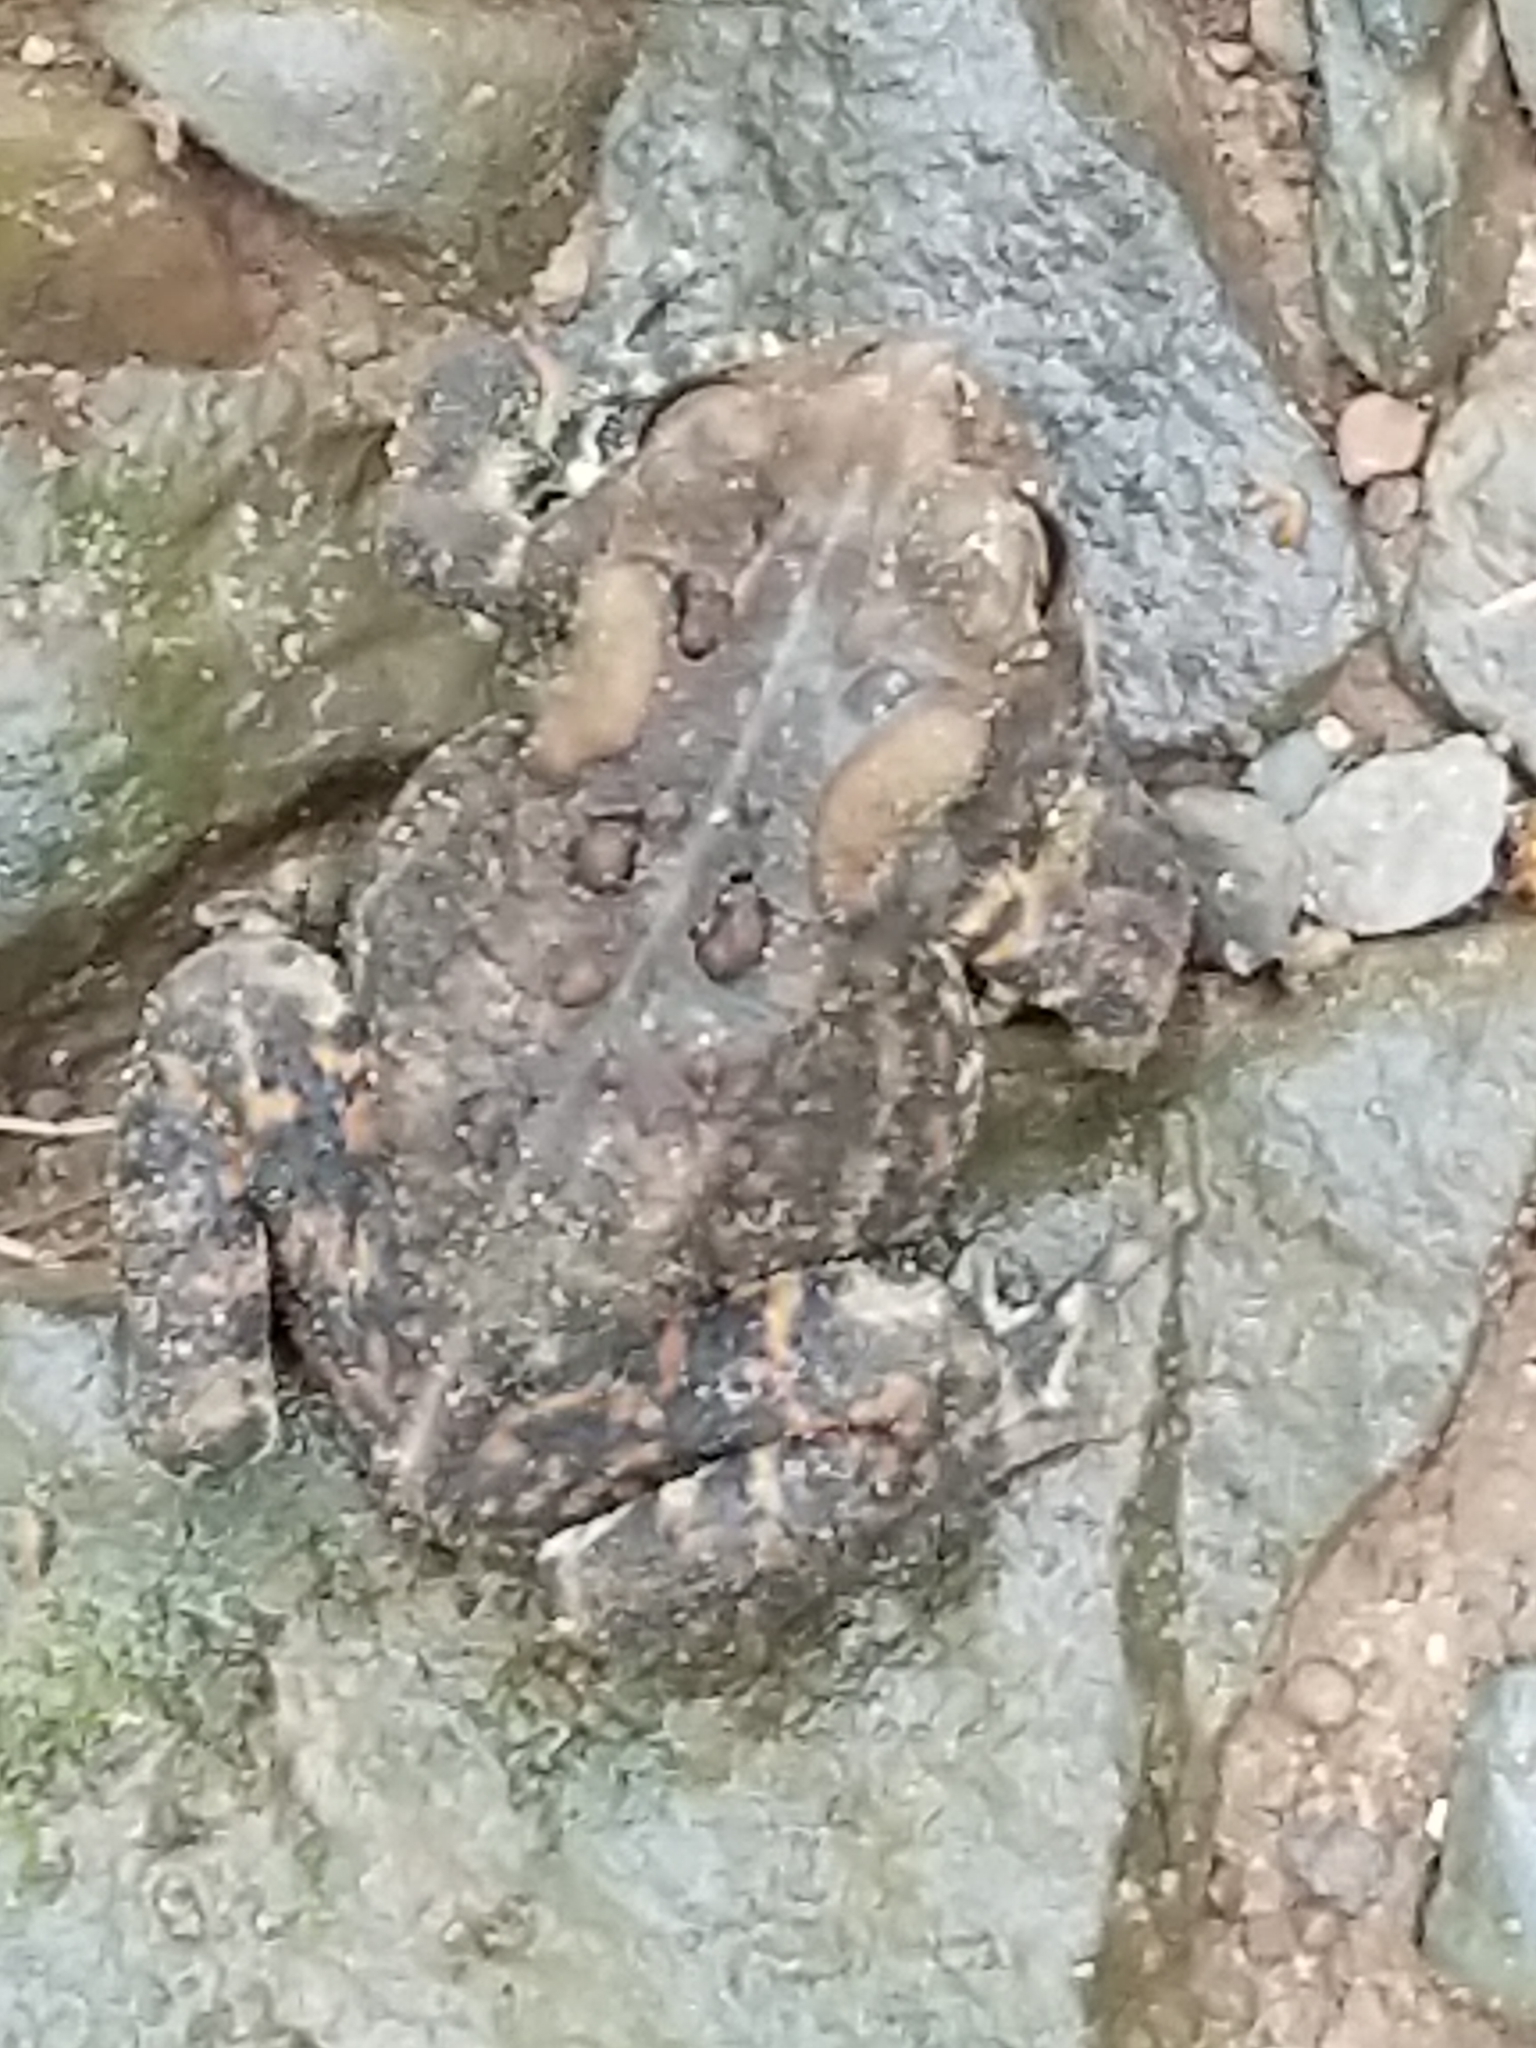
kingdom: Animalia
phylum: Chordata
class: Amphibia
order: Anura
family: Bufonidae
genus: Anaxyrus
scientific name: Anaxyrus americanus
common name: American toad
